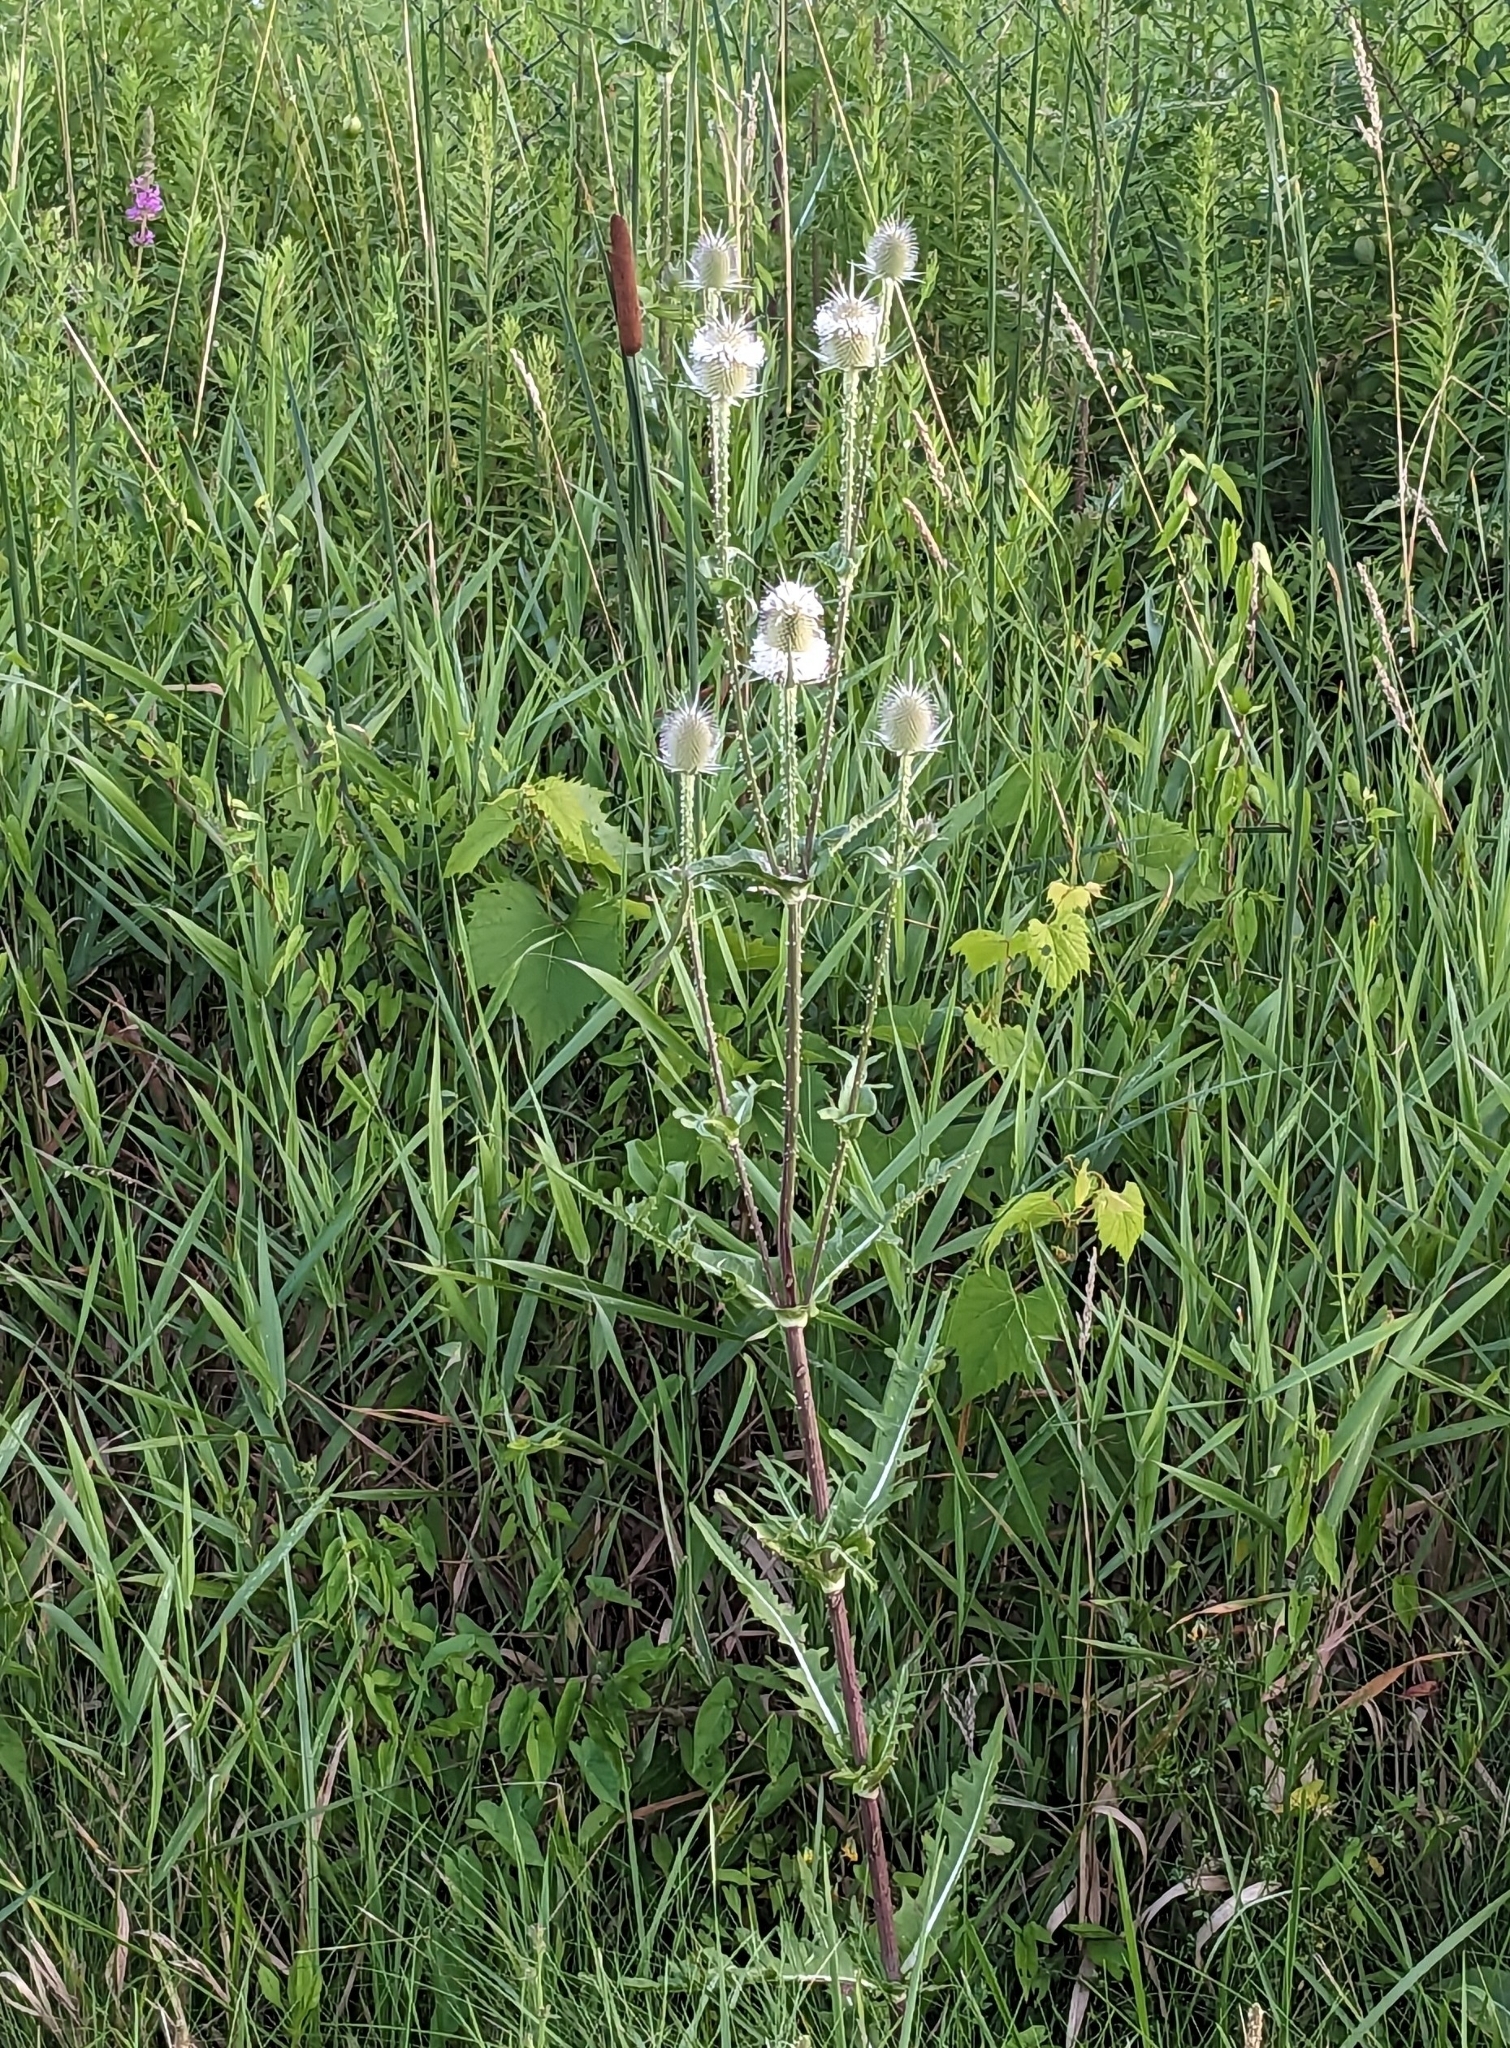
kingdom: Plantae
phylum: Tracheophyta
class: Magnoliopsida
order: Dipsacales
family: Caprifoliaceae
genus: Dipsacus
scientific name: Dipsacus laciniatus
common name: Cut-leaved teasel
